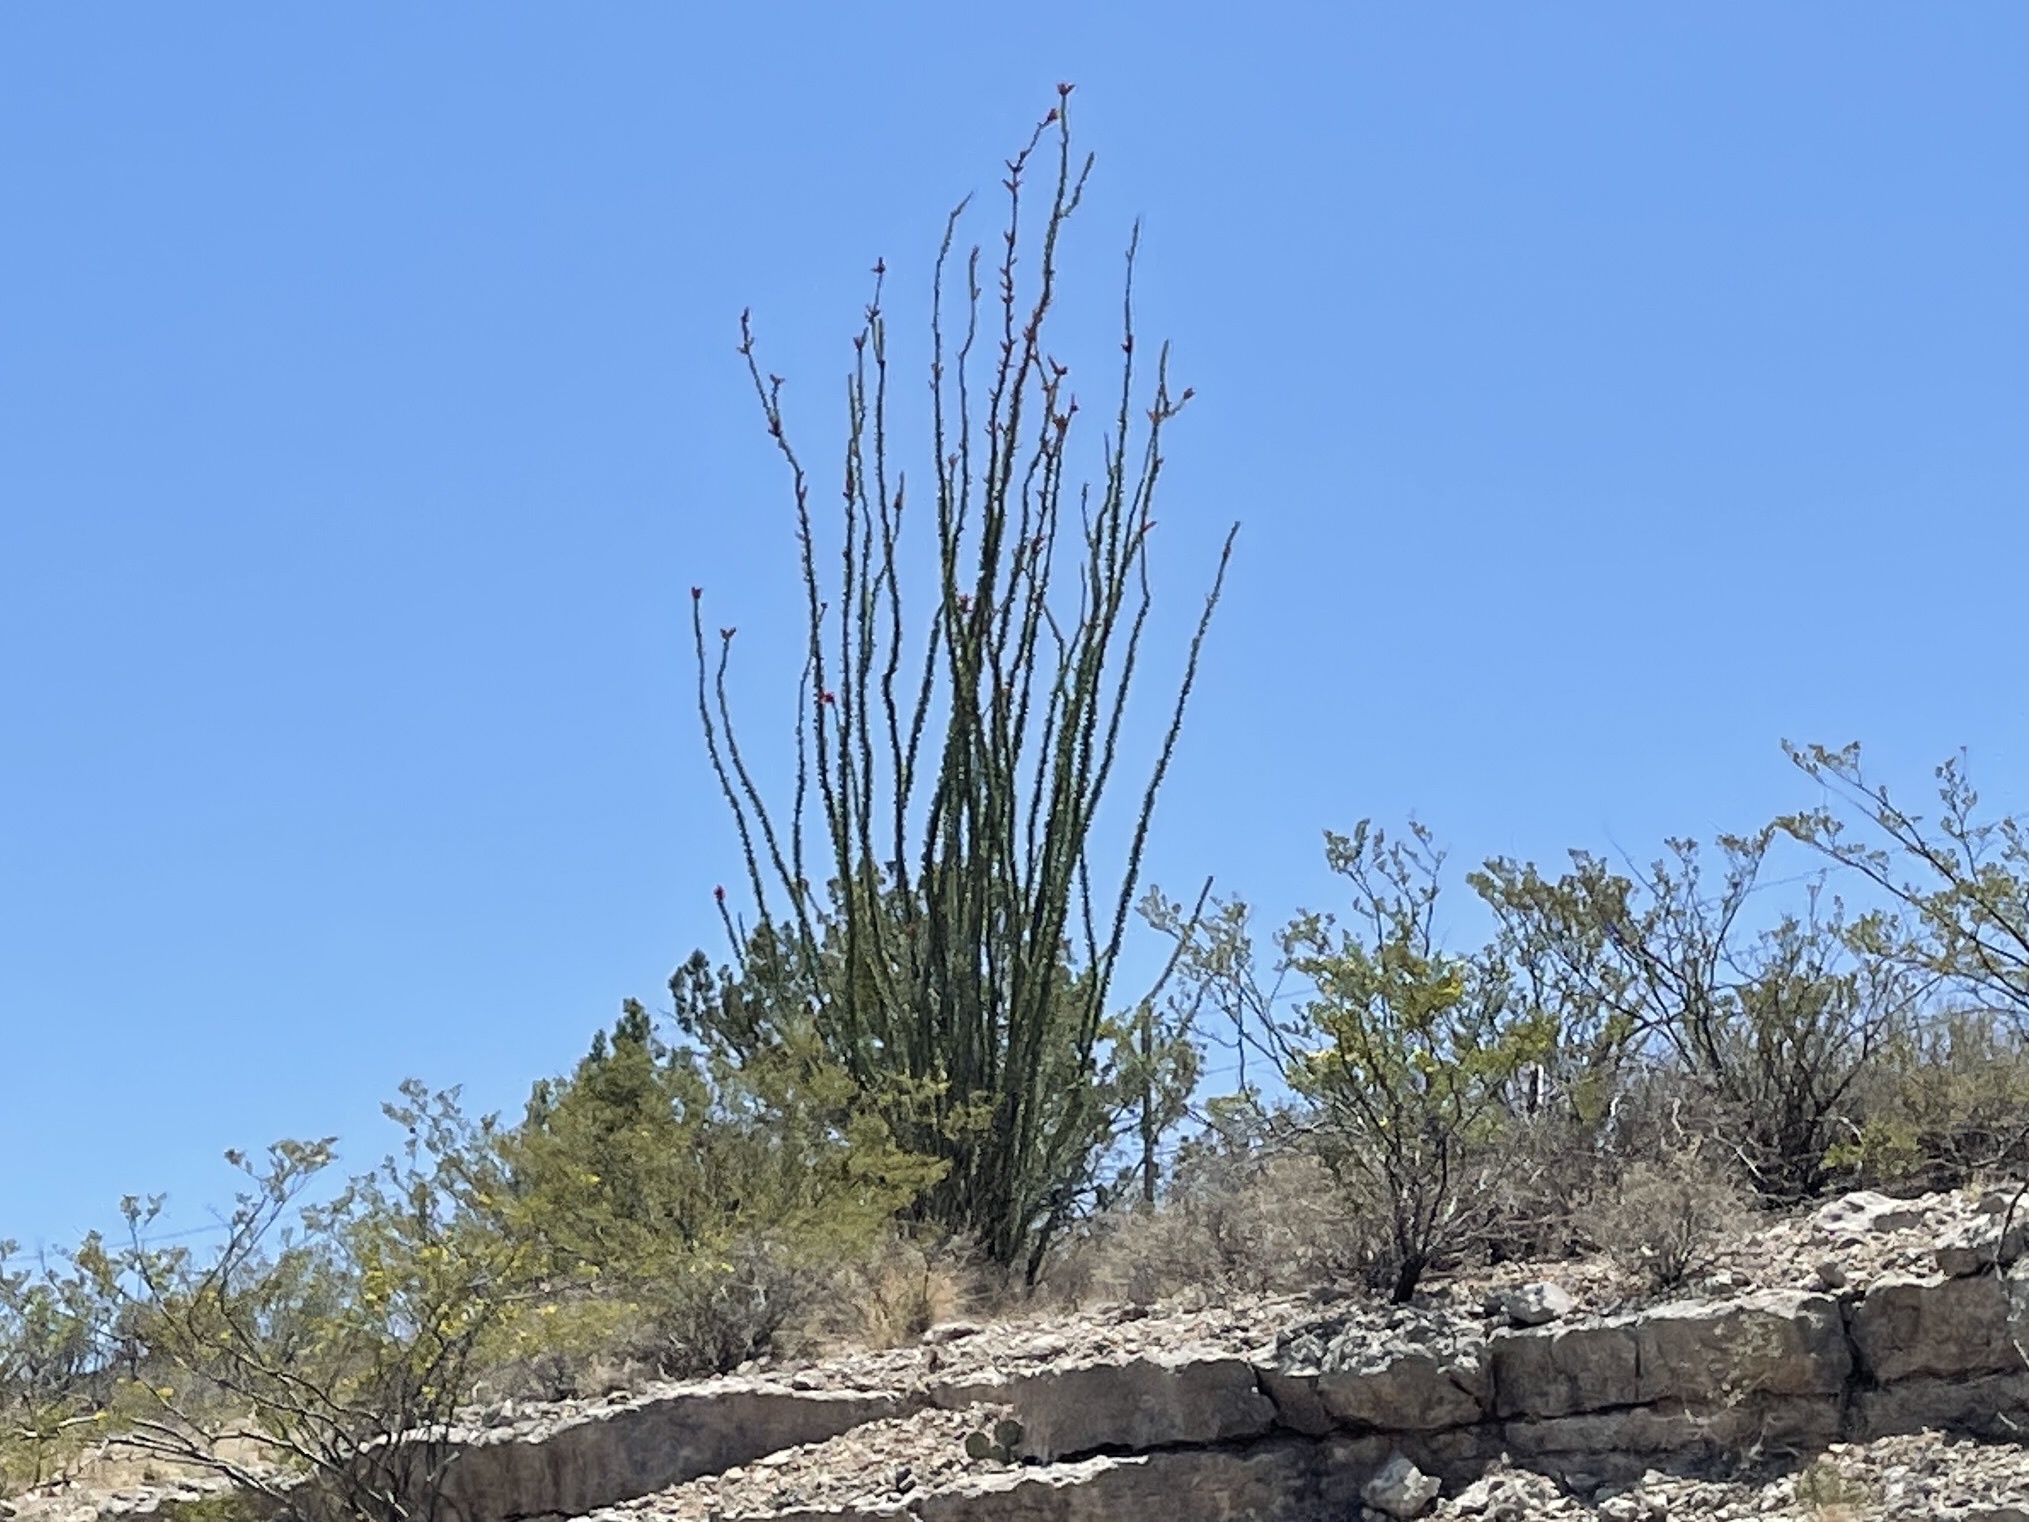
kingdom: Plantae
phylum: Tracheophyta
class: Magnoliopsida
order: Ericales
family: Fouquieriaceae
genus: Fouquieria
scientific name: Fouquieria splendens
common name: Vine-cactus
